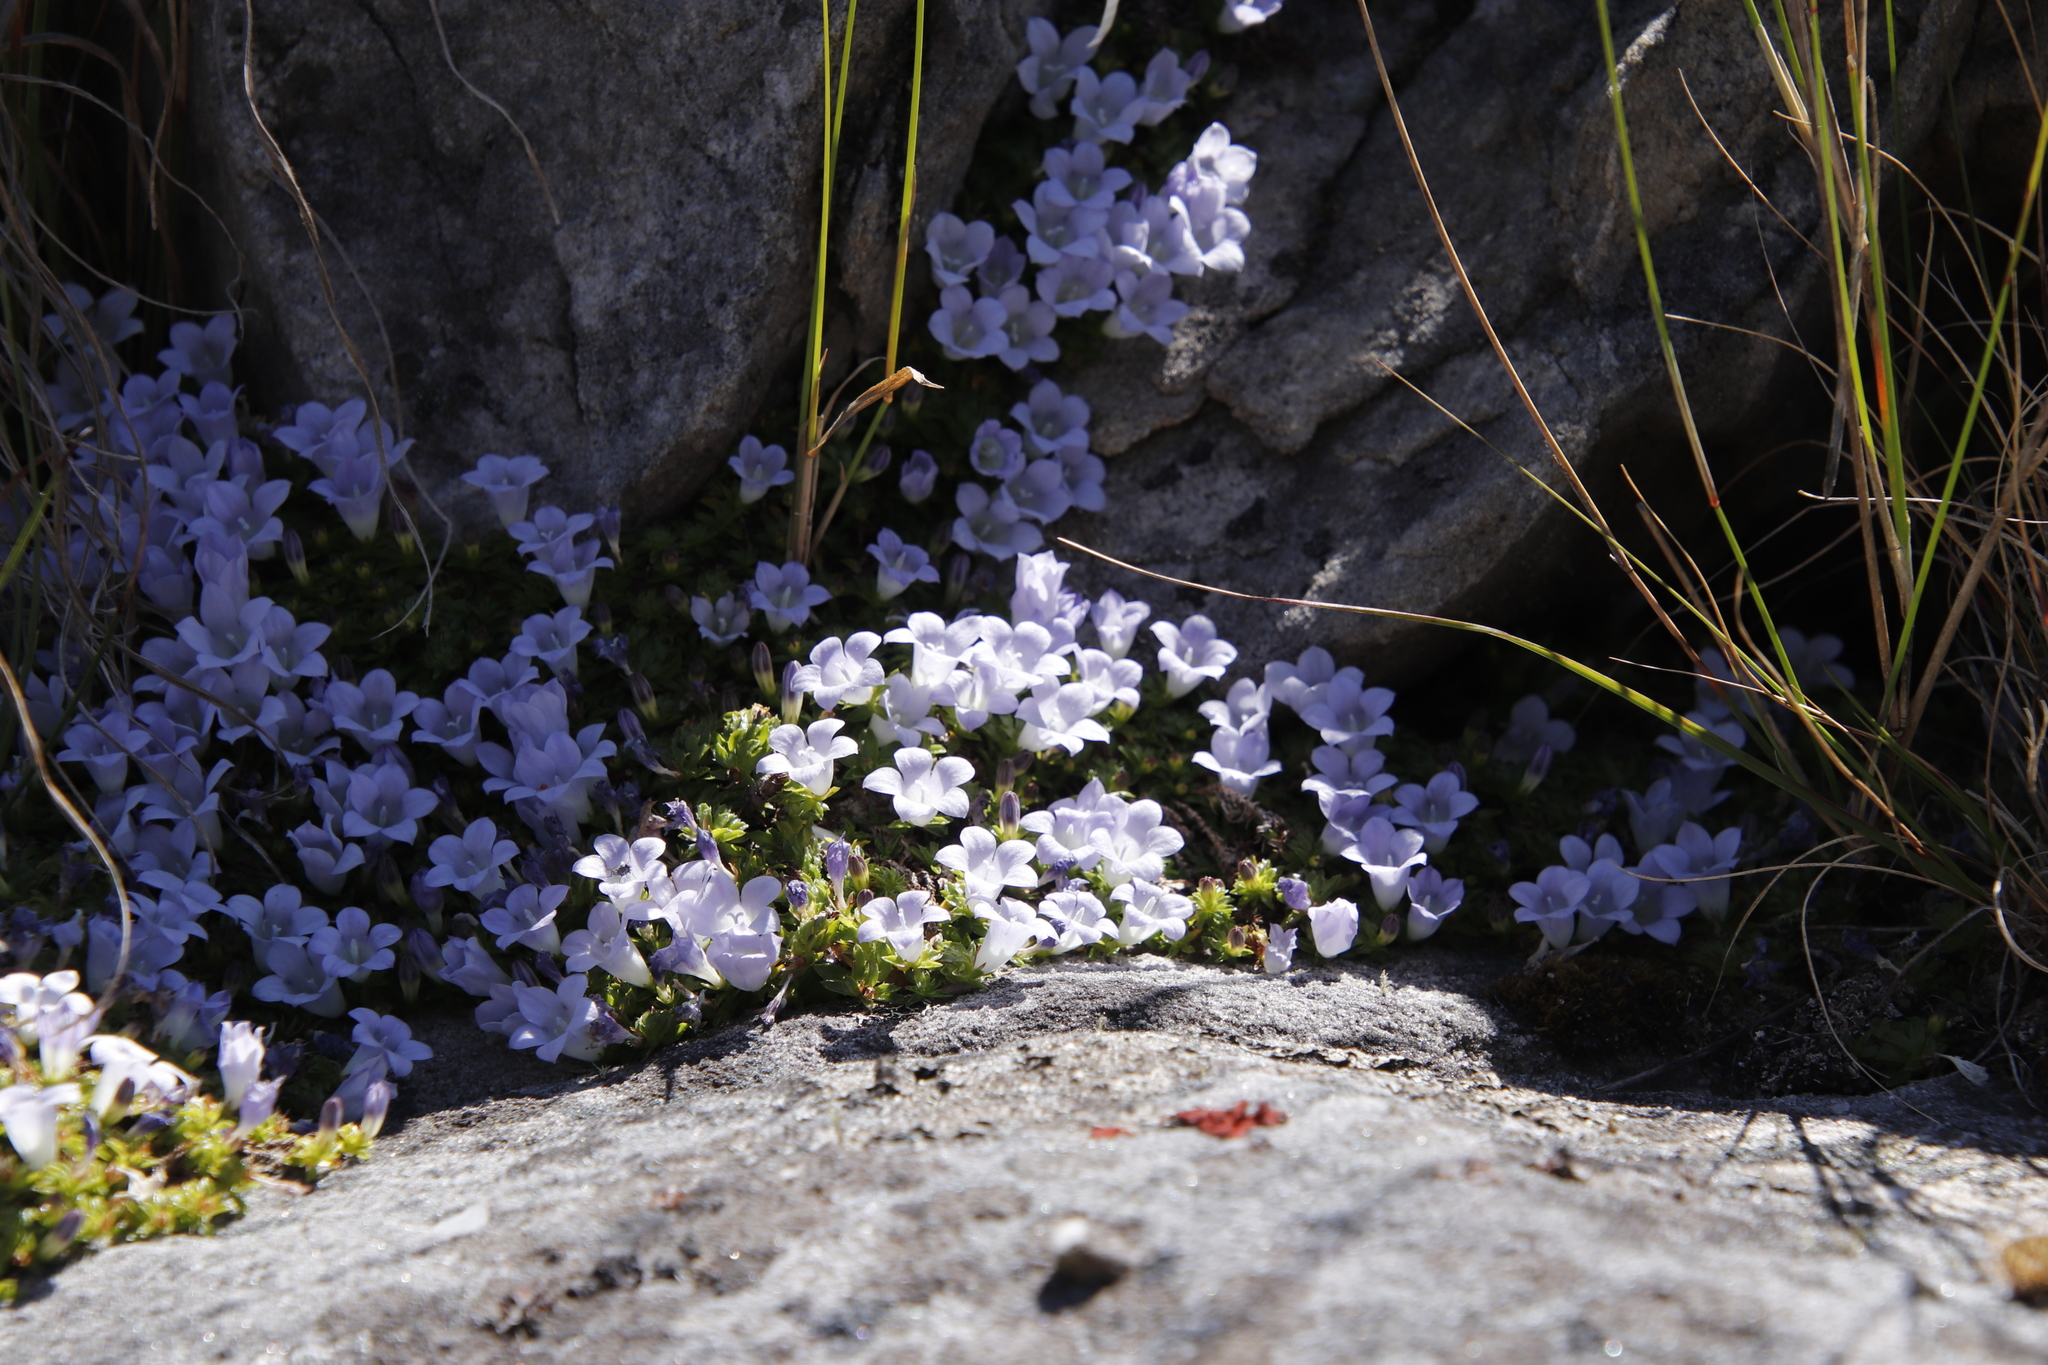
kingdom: Plantae
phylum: Tracheophyta
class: Magnoliopsida
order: Asterales
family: Campanulaceae
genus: Roella
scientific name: Roella muscosa
